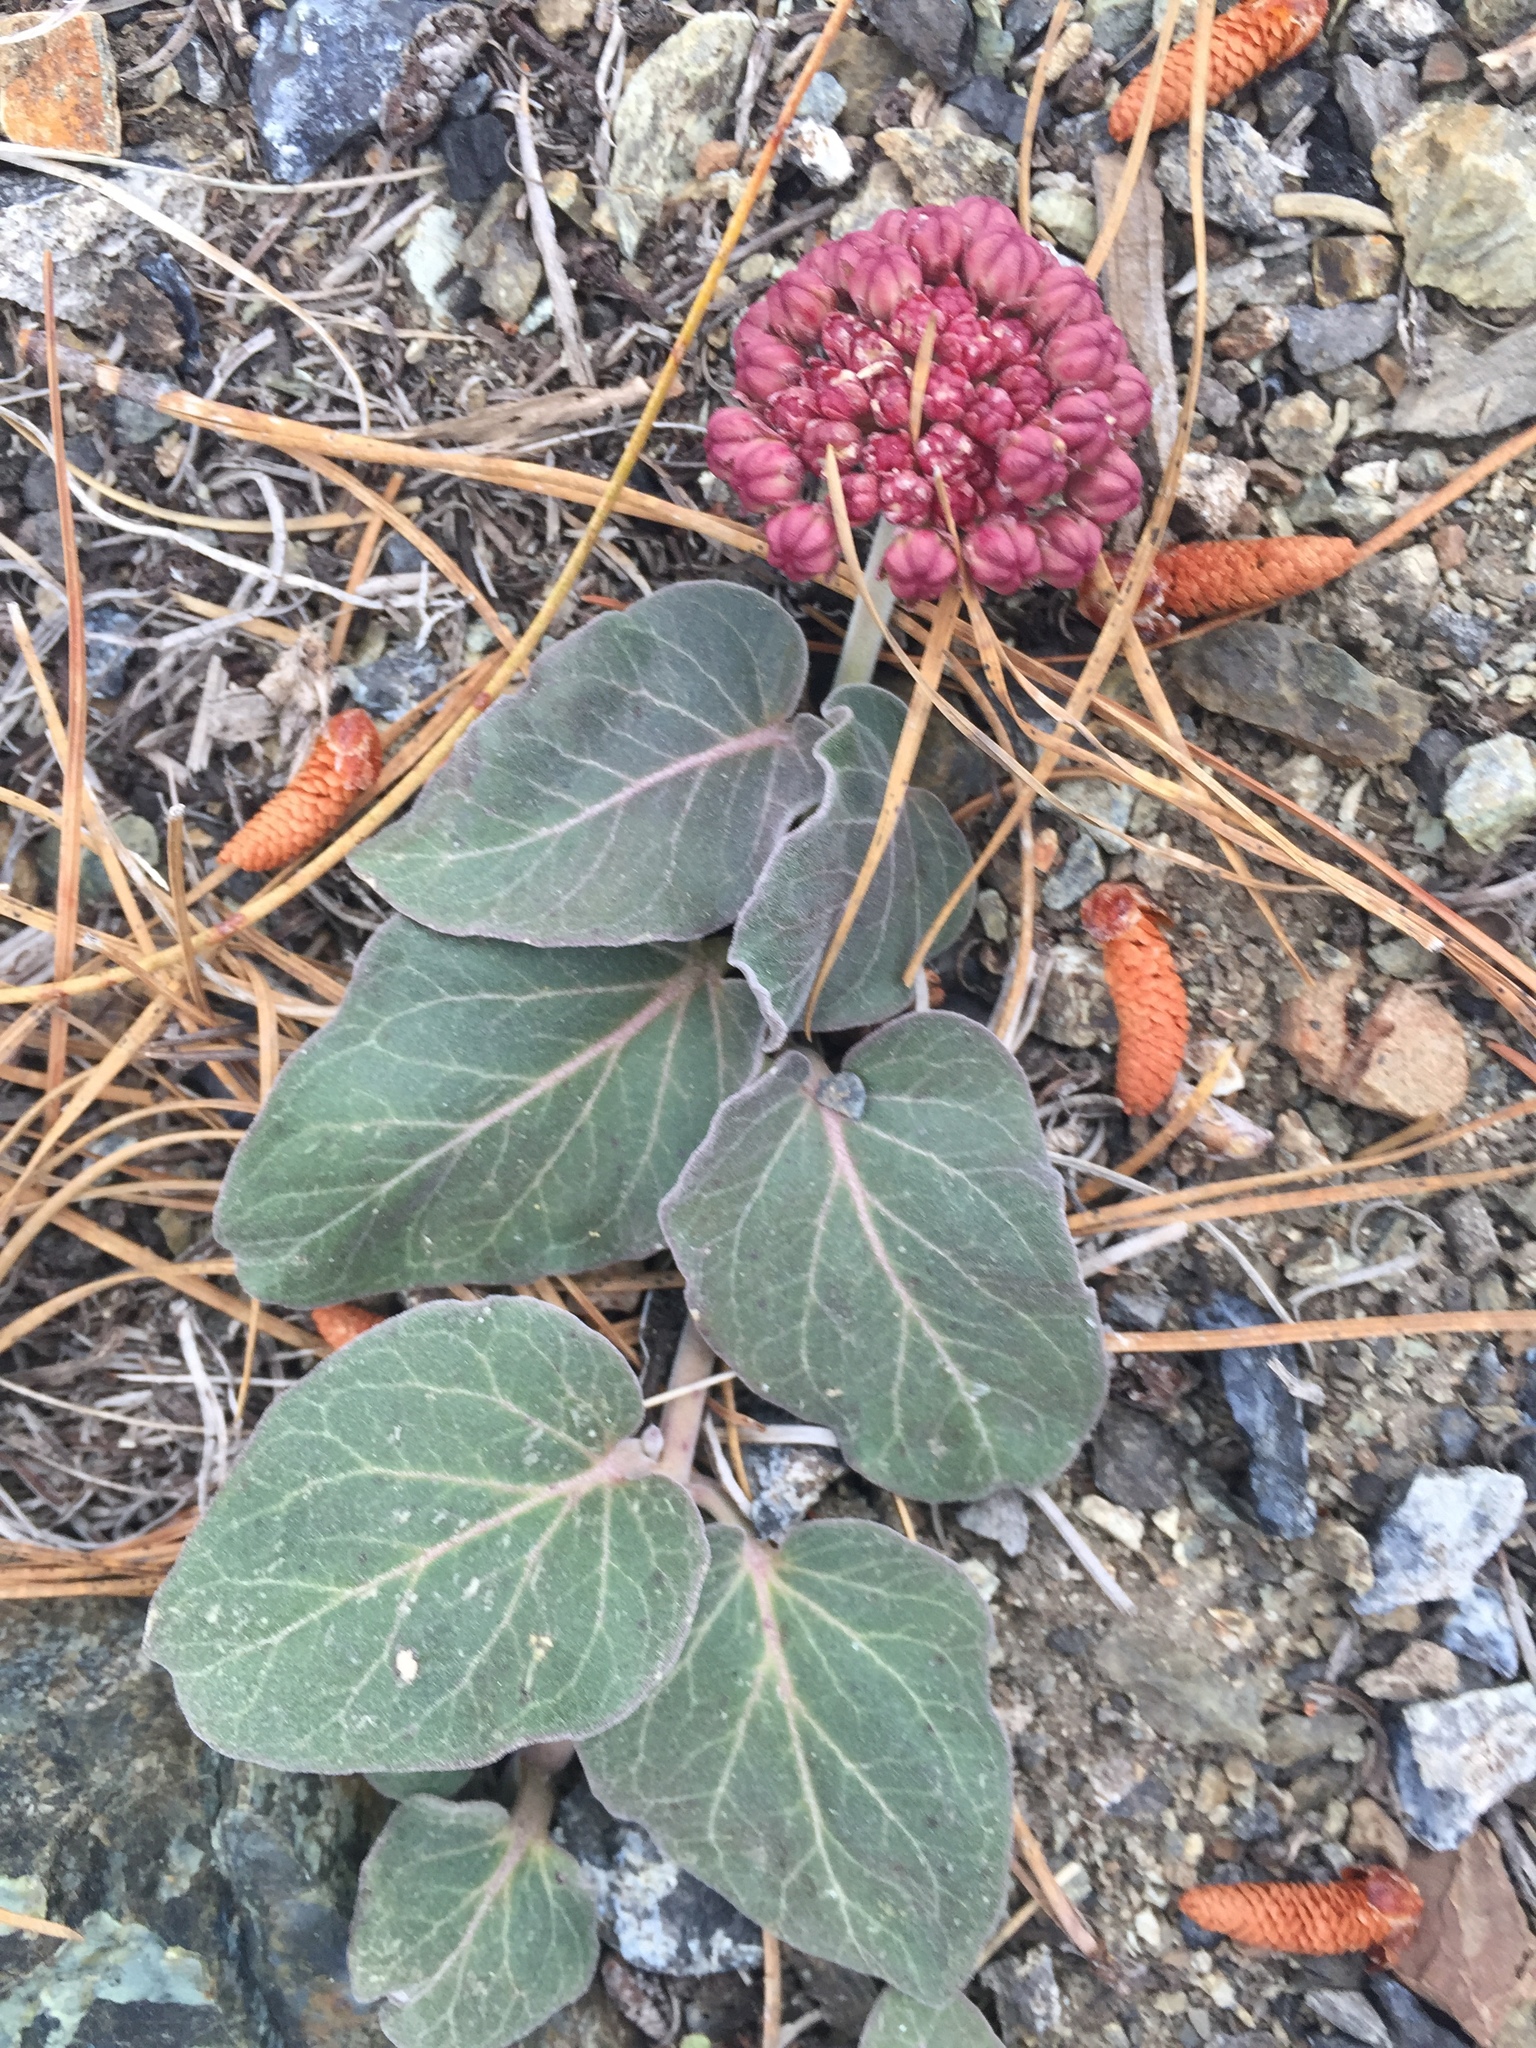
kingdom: Plantae
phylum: Tracheophyta
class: Magnoliopsida
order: Gentianales
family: Apocynaceae
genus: Asclepias
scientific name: Asclepias solanoana
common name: Serpentine milkweed
